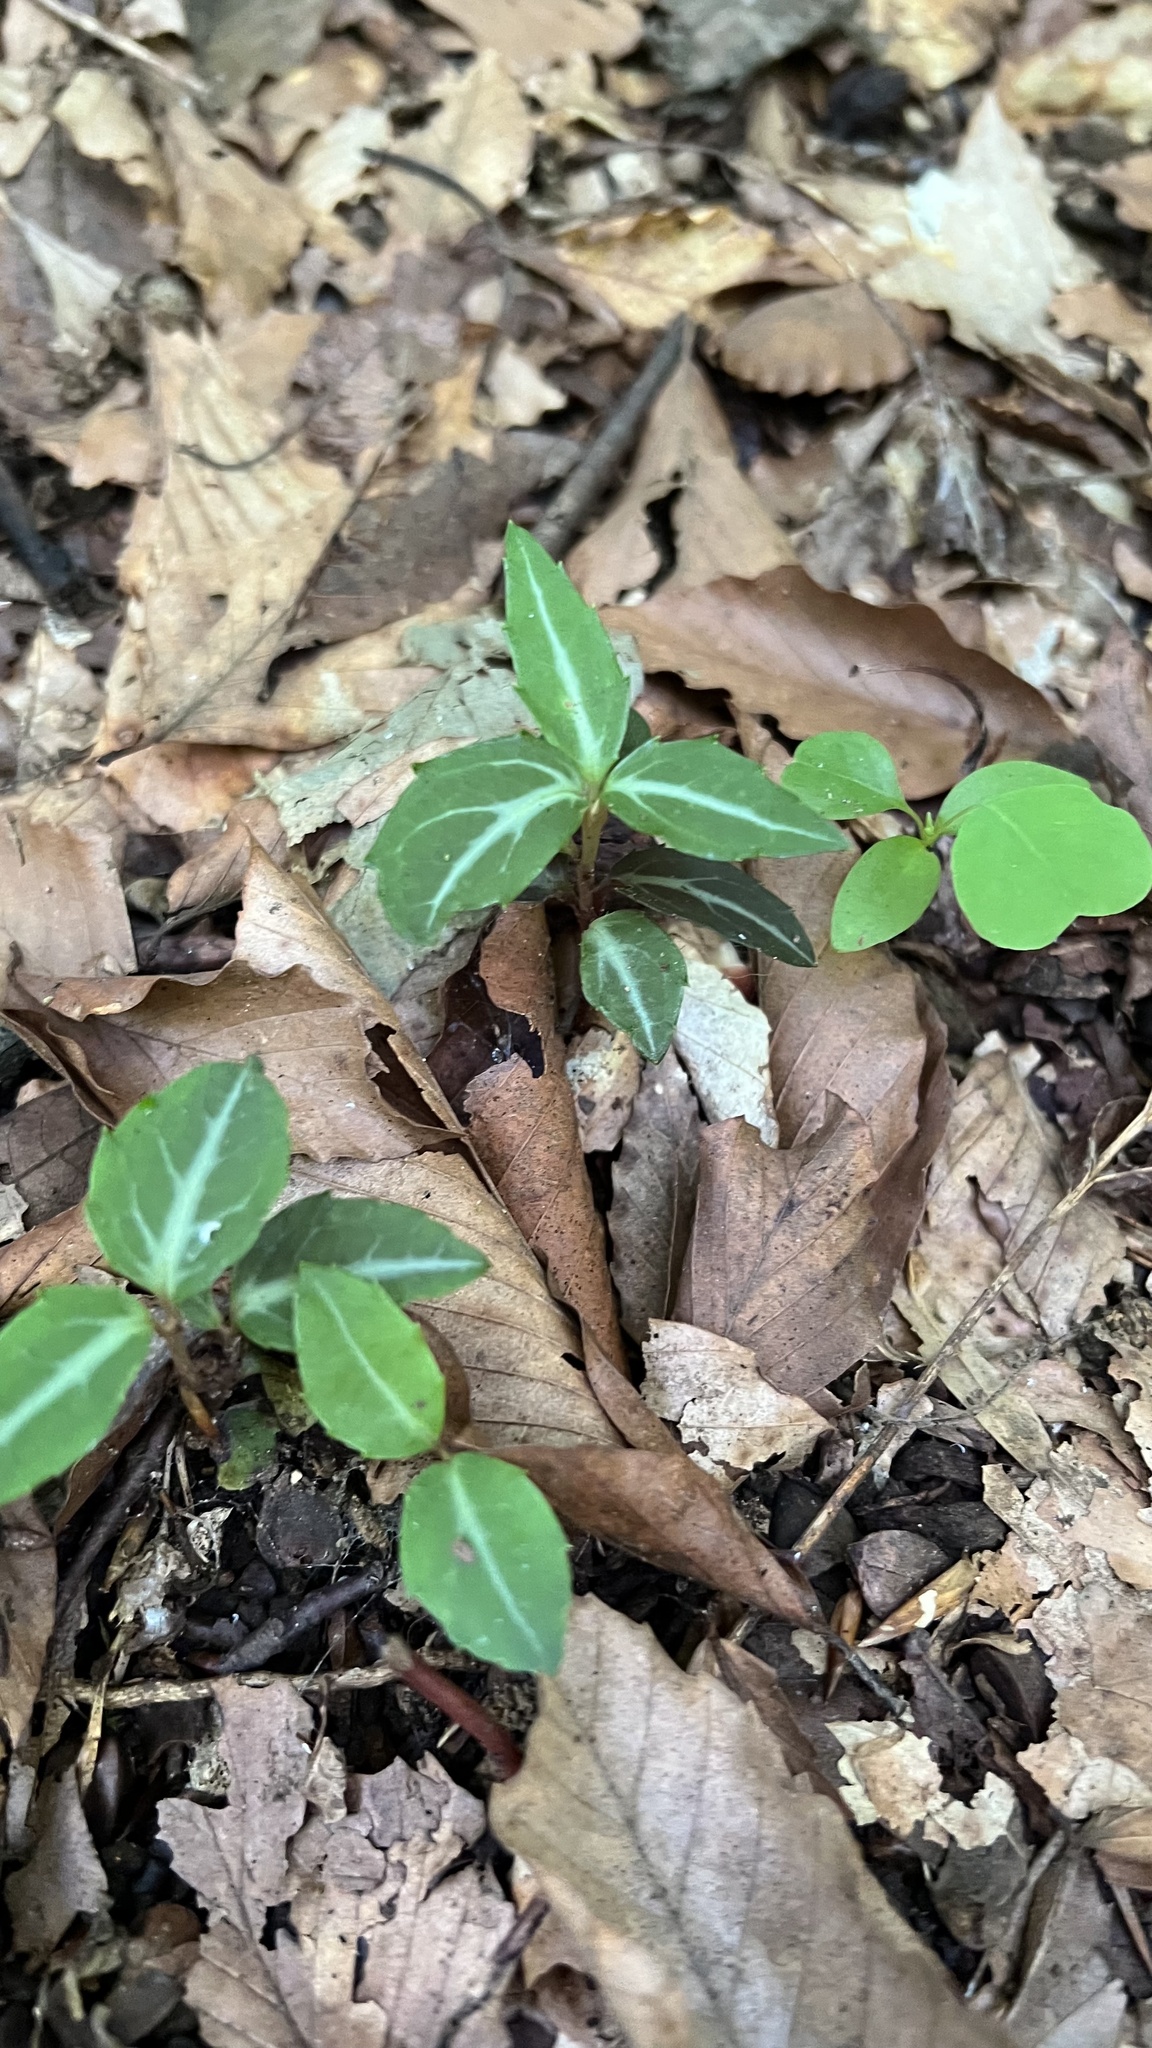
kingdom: Plantae
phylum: Tracheophyta
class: Magnoliopsida
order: Ericales
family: Ericaceae
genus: Chimaphila
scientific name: Chimaphila maculata
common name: Spotted pipsissewa
